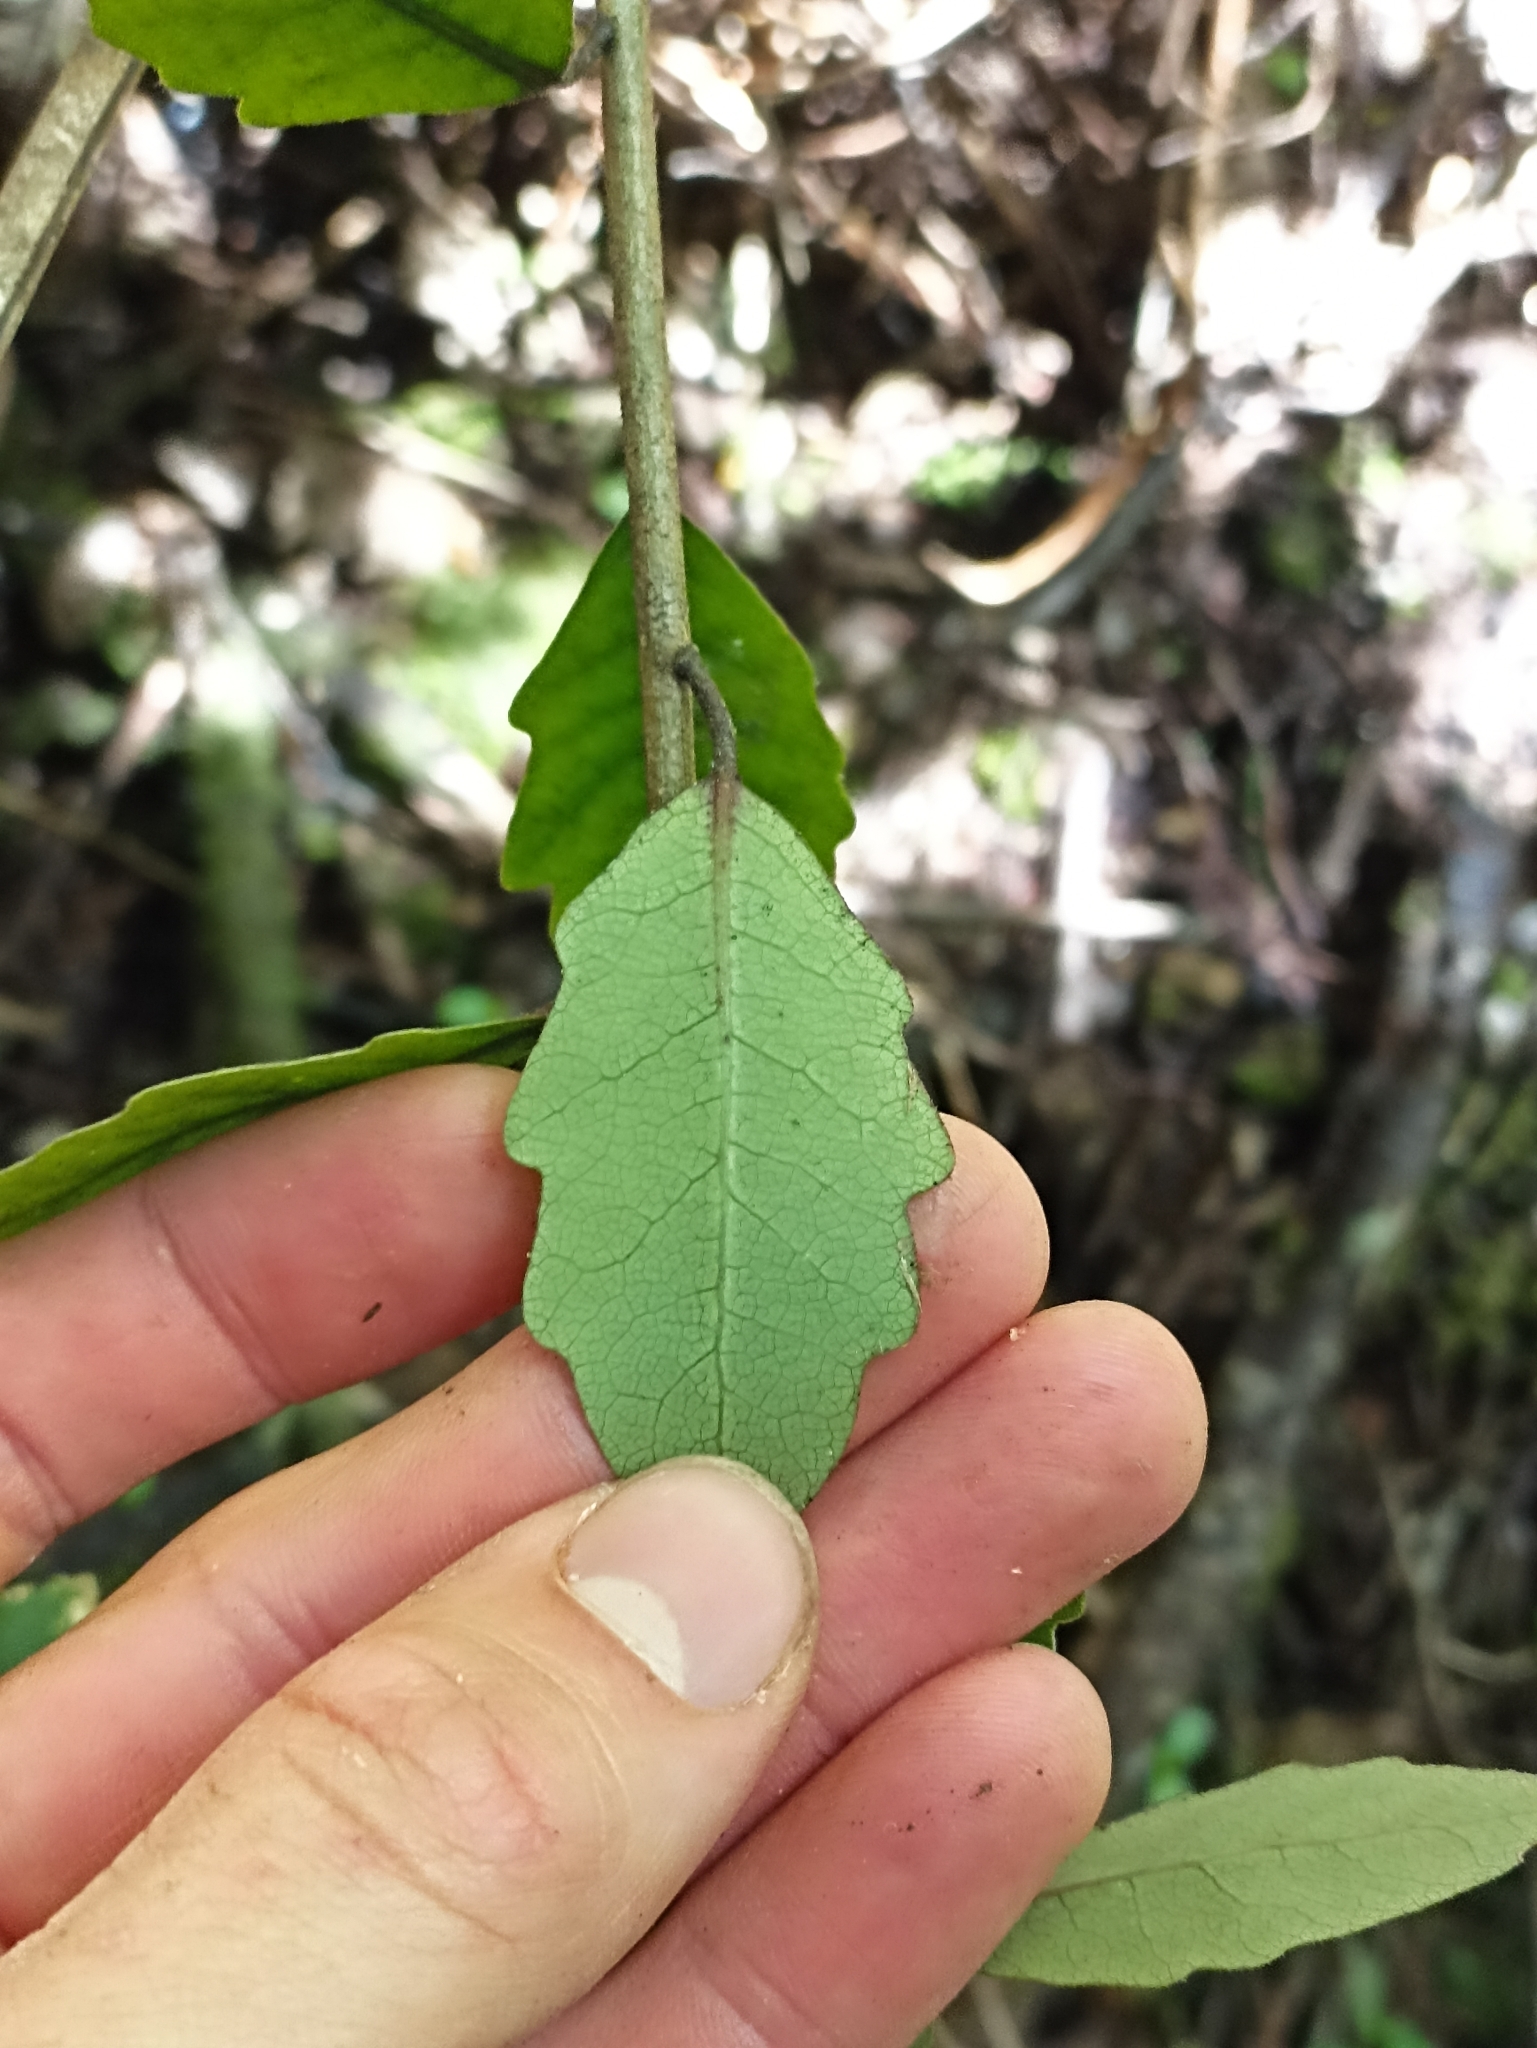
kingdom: Plantae
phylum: Tracheophyta
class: Magnoliopsida
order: Apiales
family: Pittosporaceae
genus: Pittosporum
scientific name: Pittosporum virgatum
